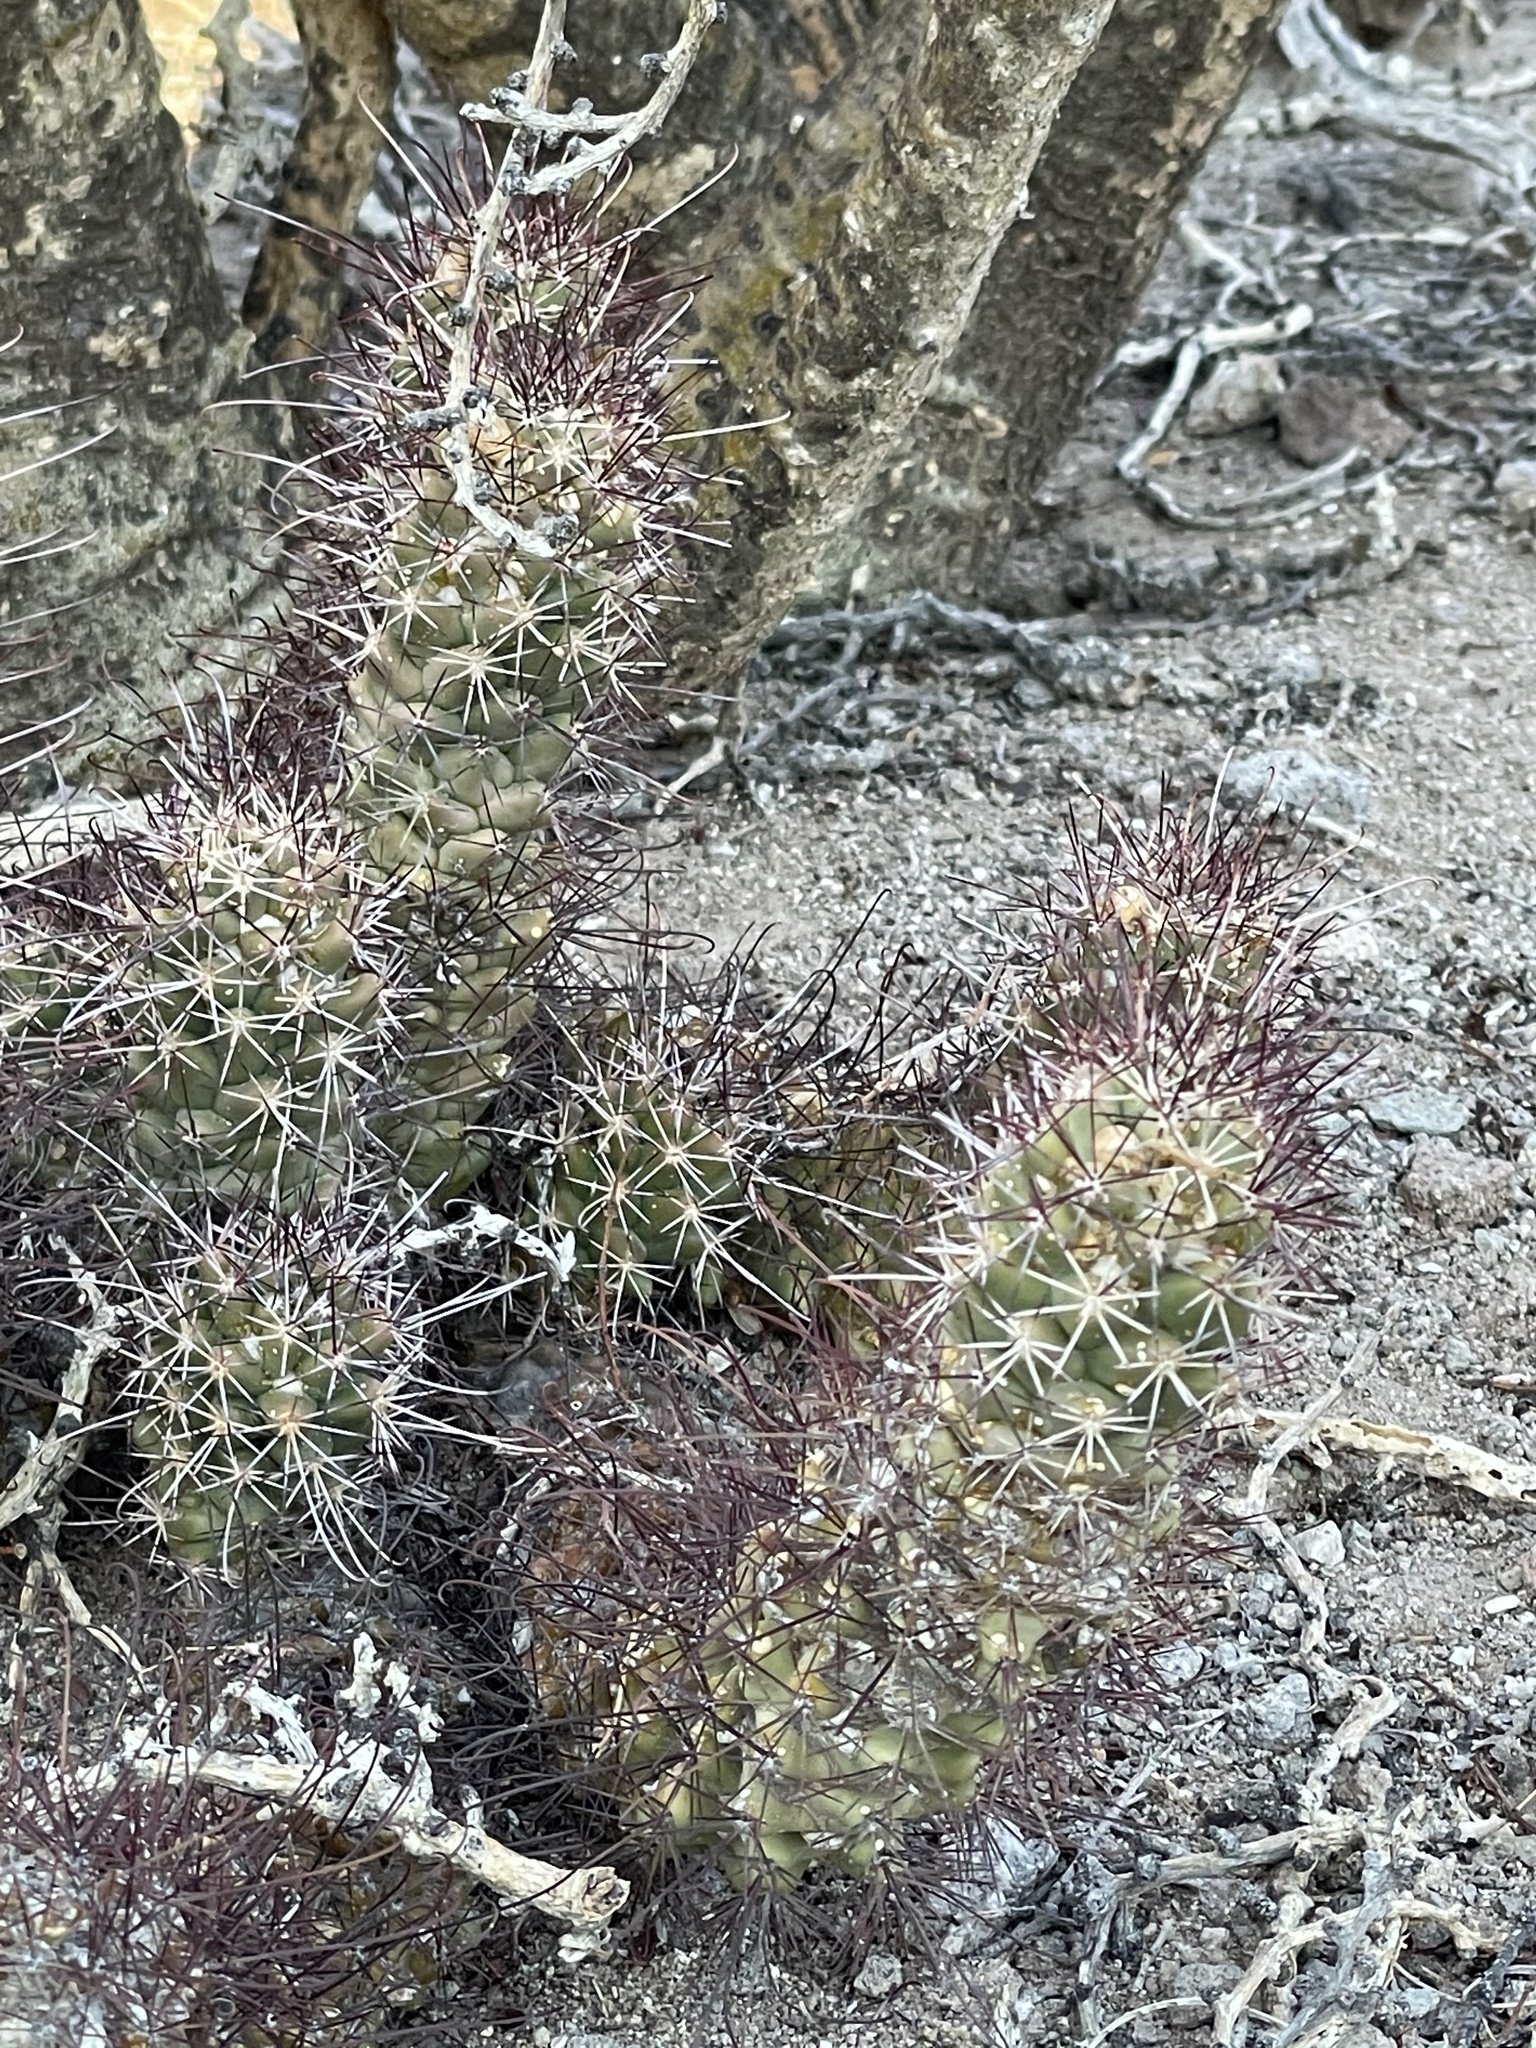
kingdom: Plantae
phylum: Tracheophyta
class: Magnoliopsida
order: Caryophyllales
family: Cactaceae
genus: Cochemiea
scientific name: Cochemiea poselgeri
